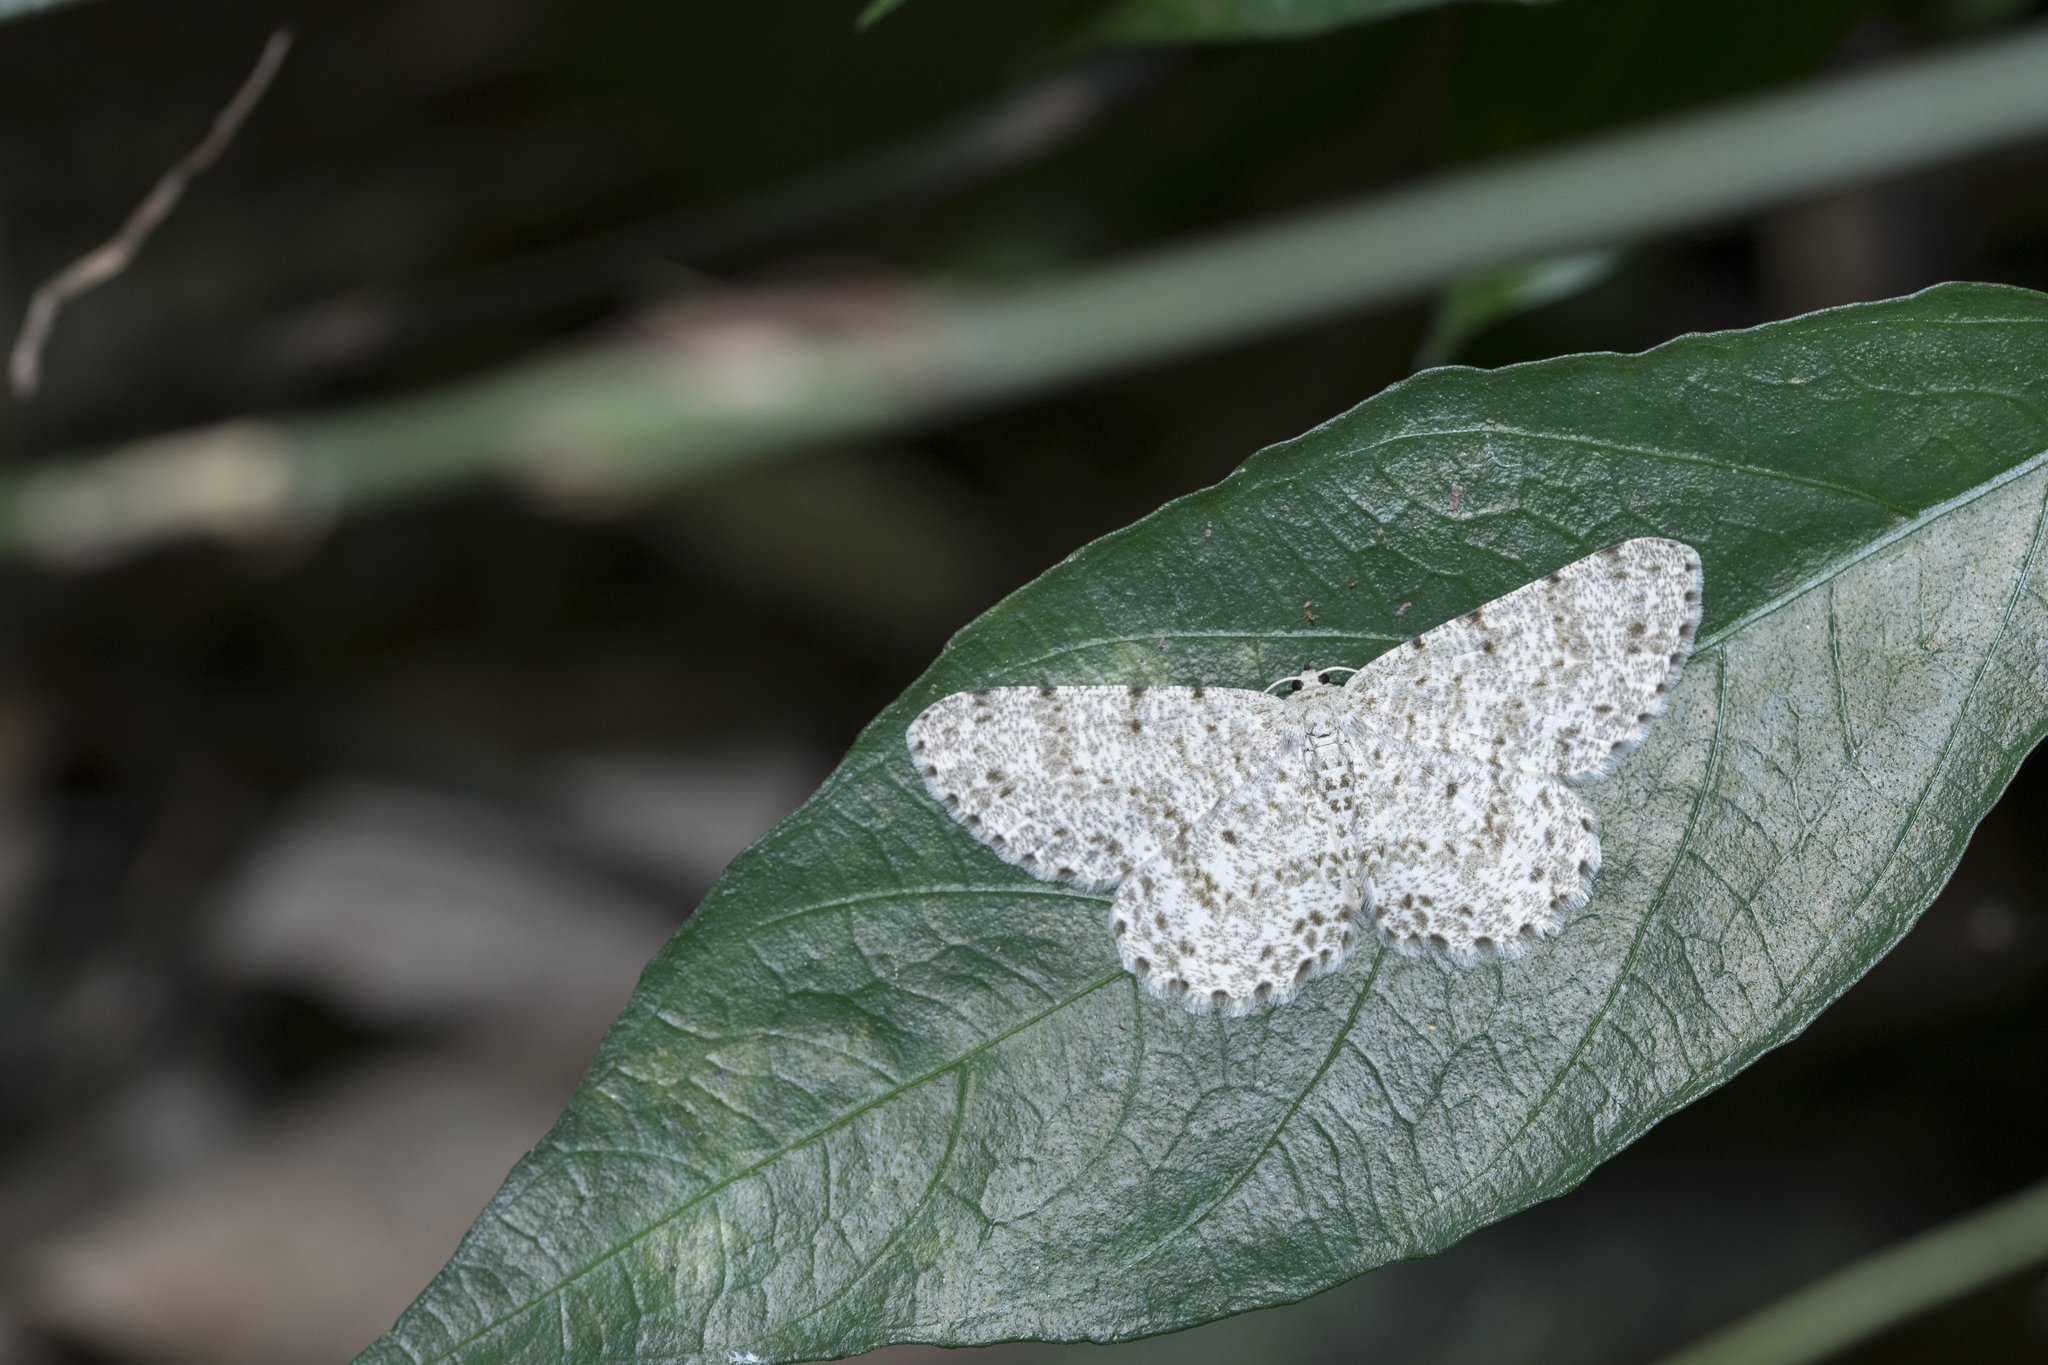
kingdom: Animalia
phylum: Arthropoda
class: Insecta
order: Lepidoptera
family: Geometridae
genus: Catoria
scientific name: Catoria sublavaria
